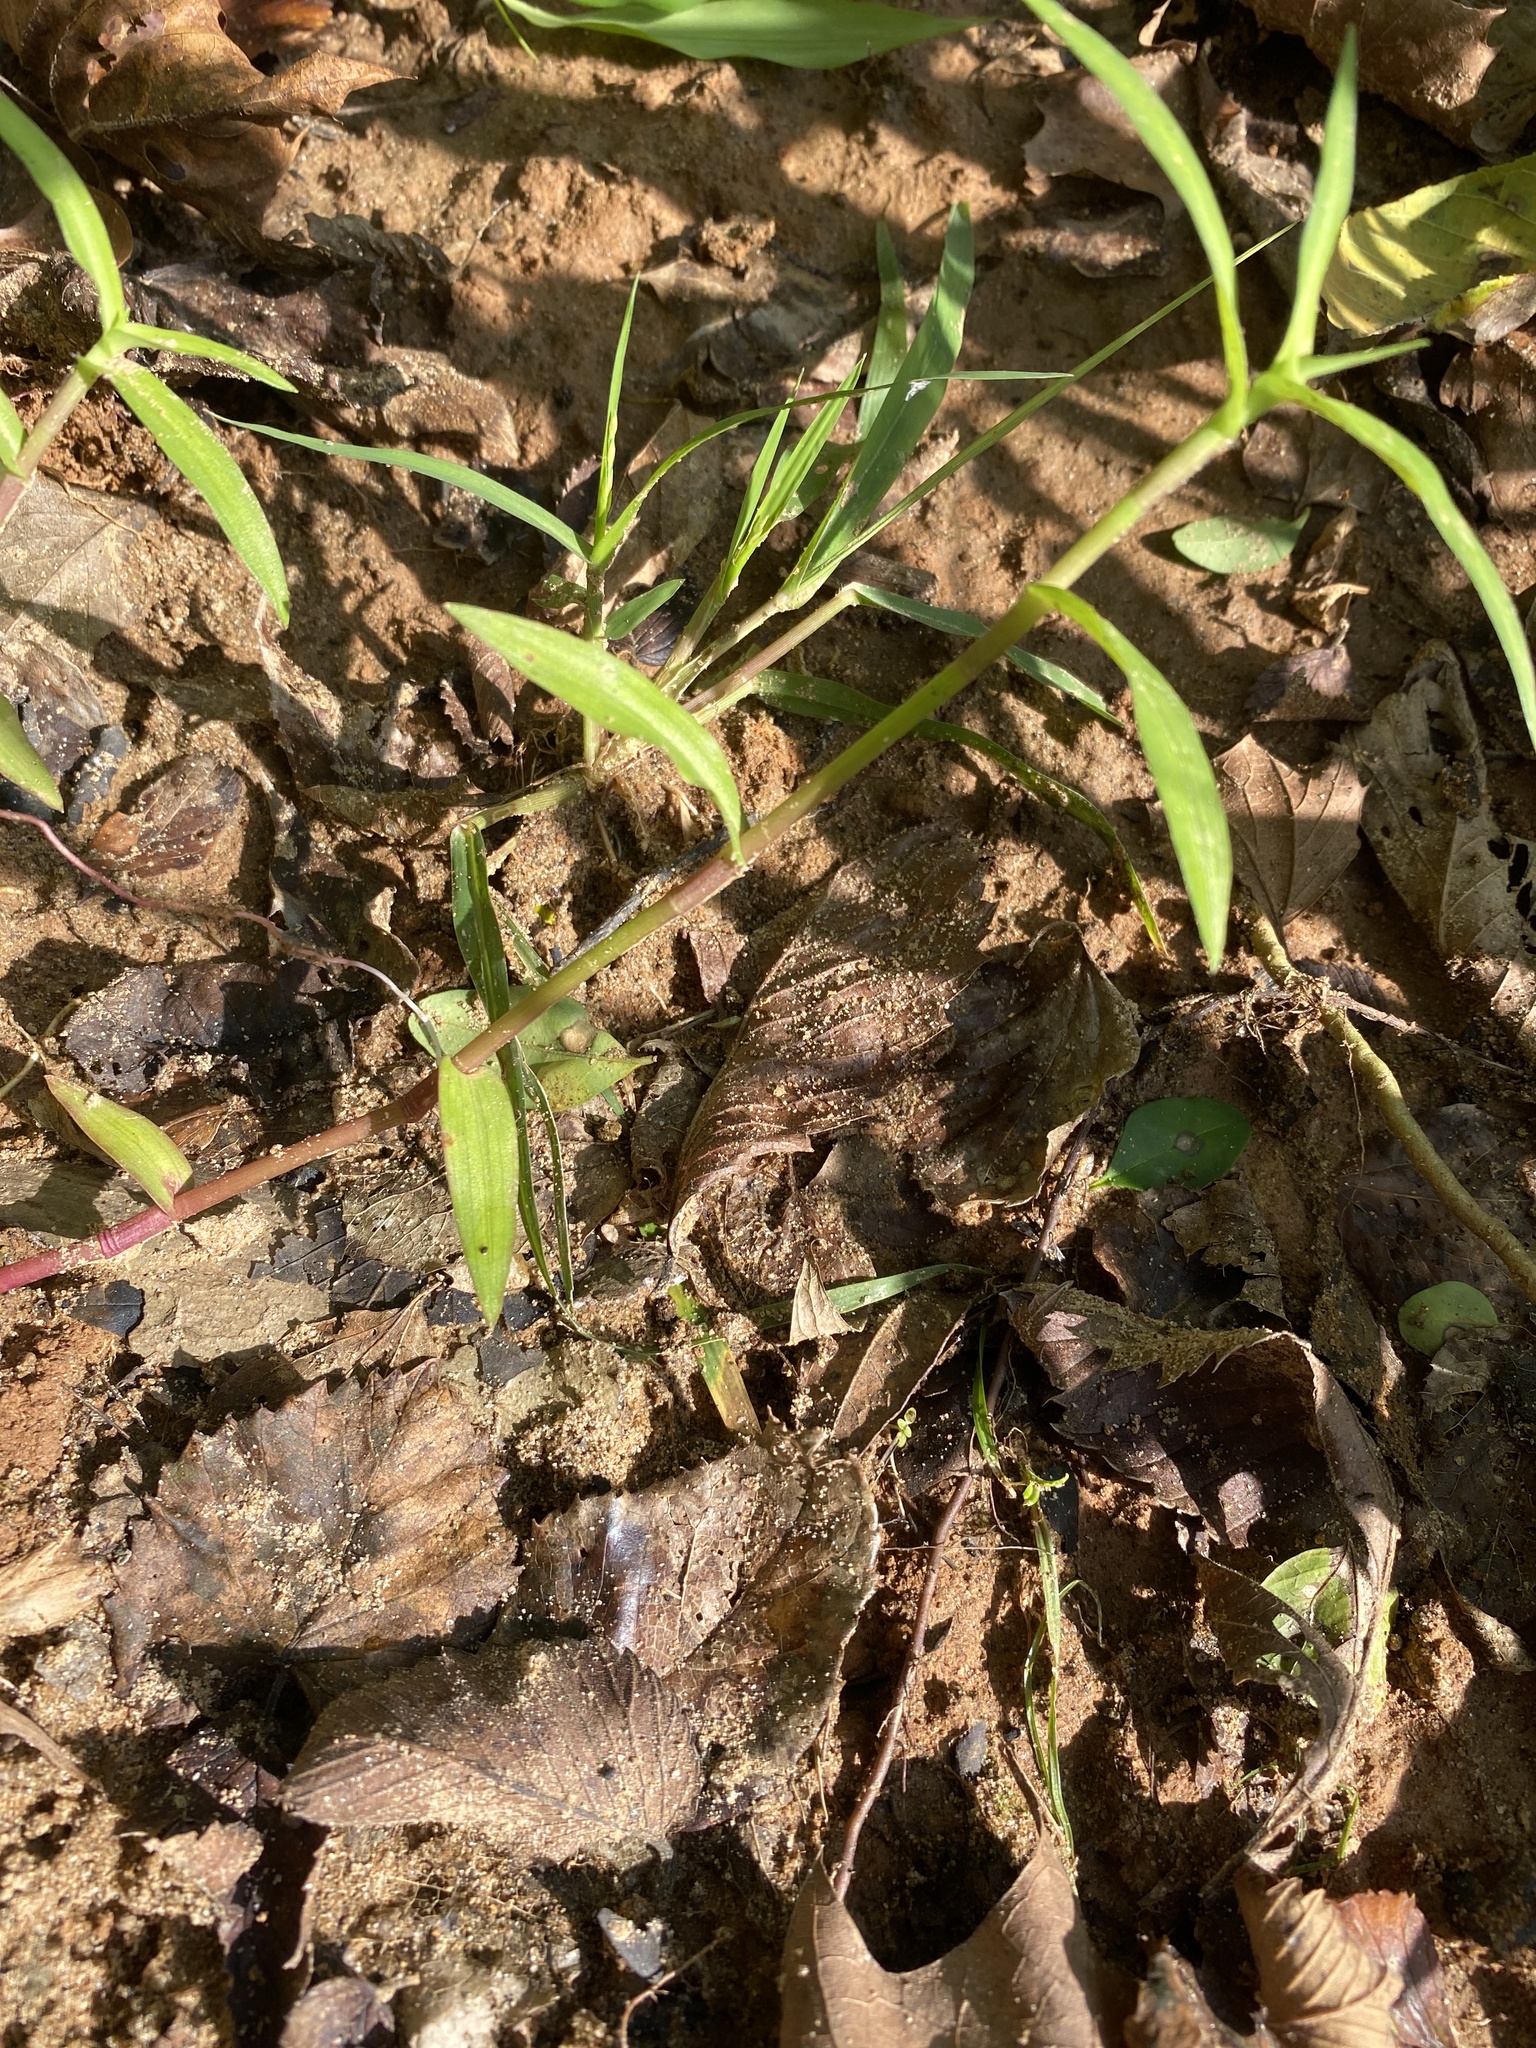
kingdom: Plantae
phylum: Tracheophyta
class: Liliopsida
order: Commelinales
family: Commelinaceae
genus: Commelina
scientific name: Commelina diffusa
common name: Climbing dayflower
